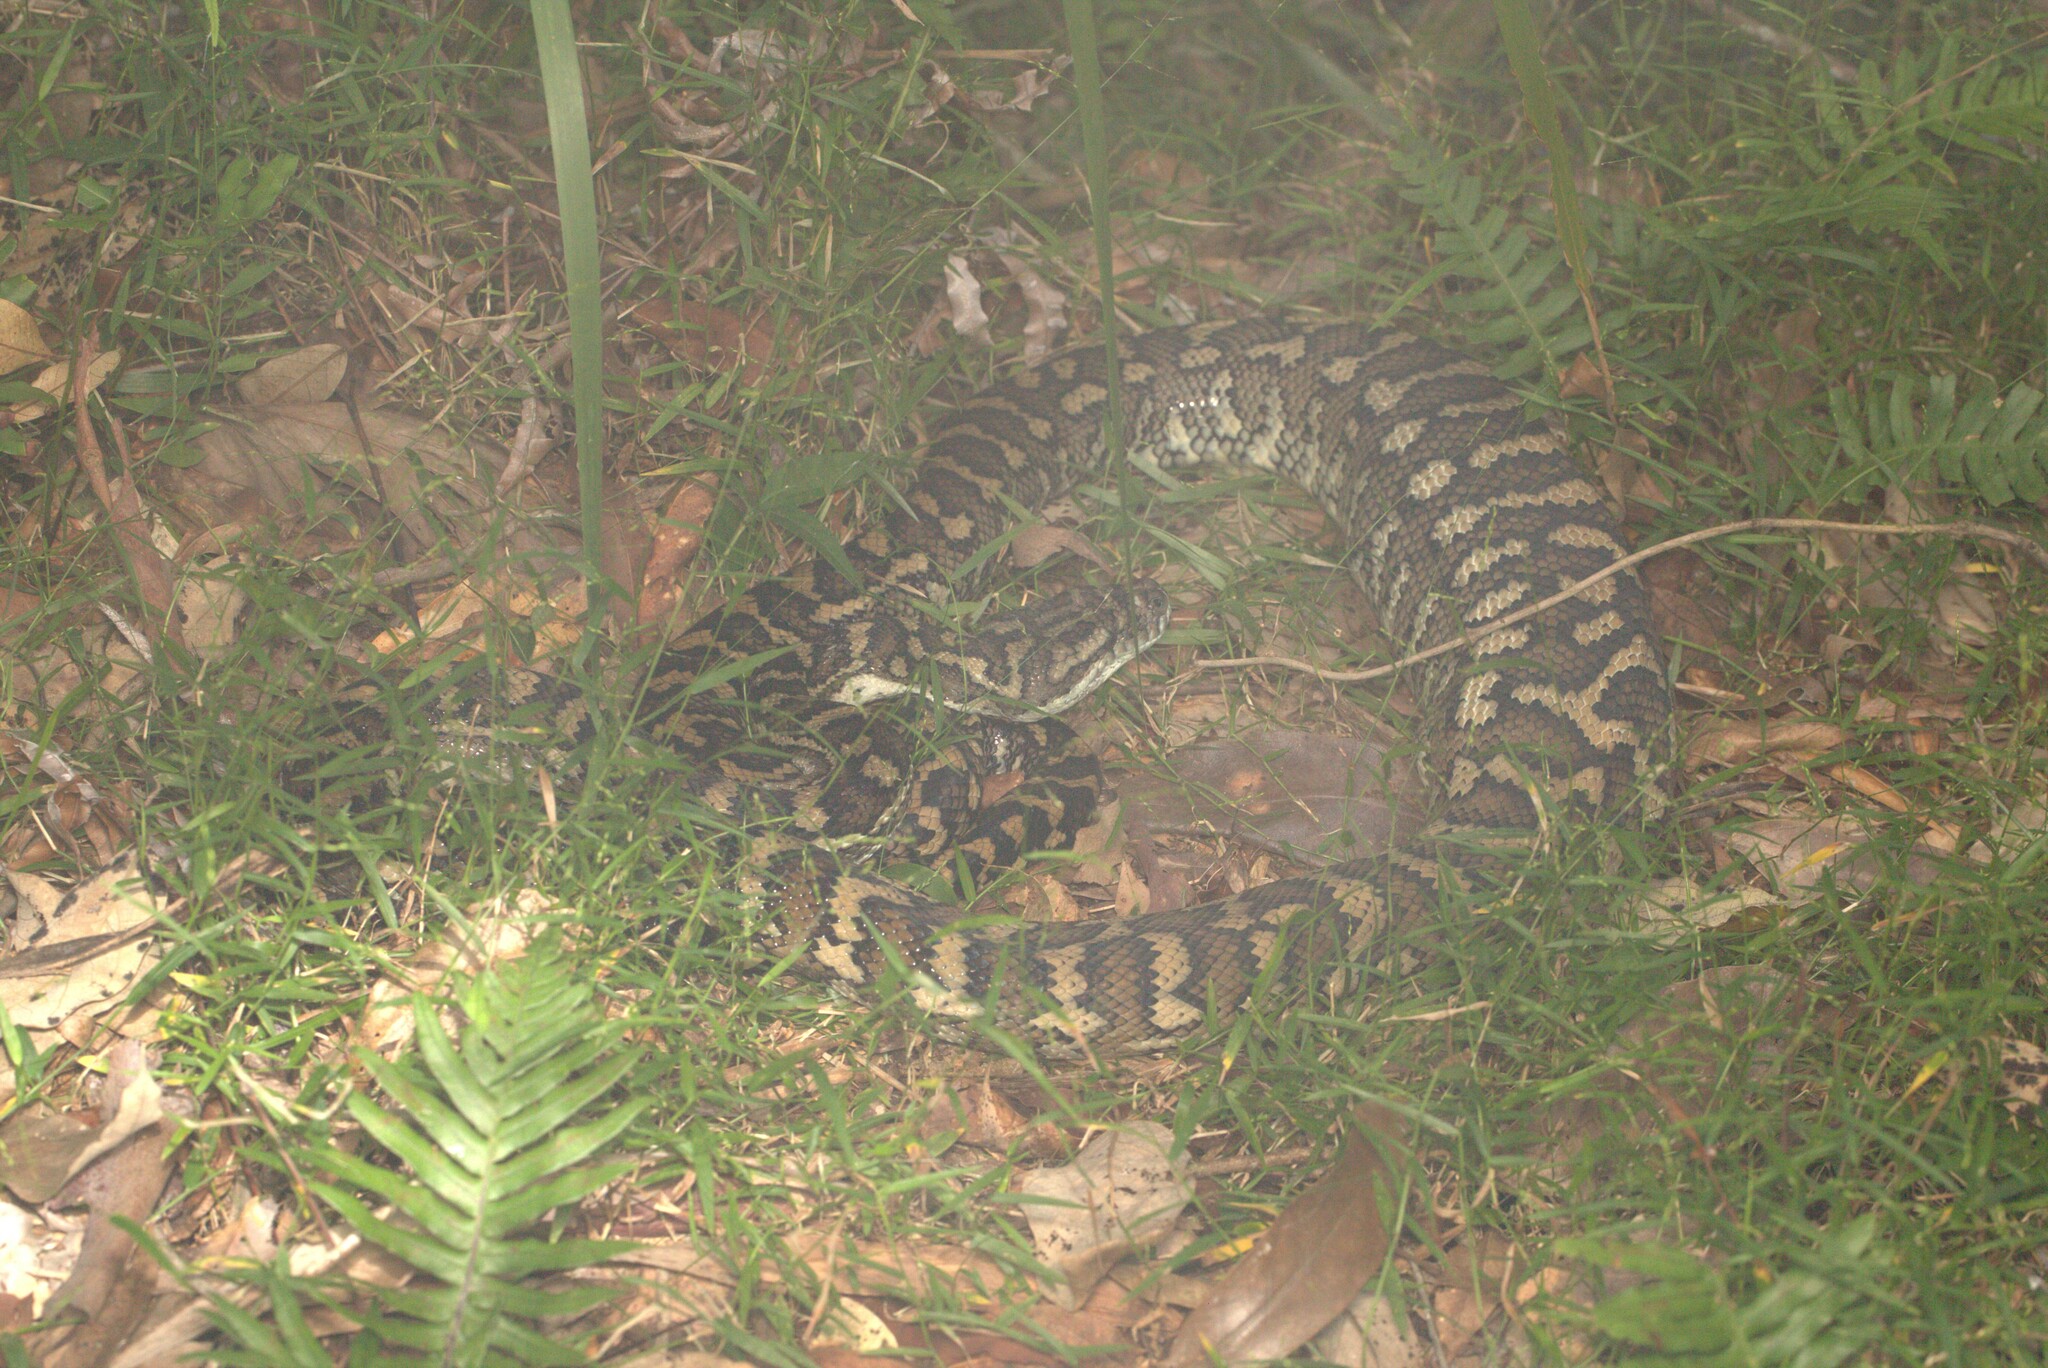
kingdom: Animalia
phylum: Chordata
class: Squamata
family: Pythonidae
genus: Morelia
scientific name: Morelia spilota
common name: Carpet python
